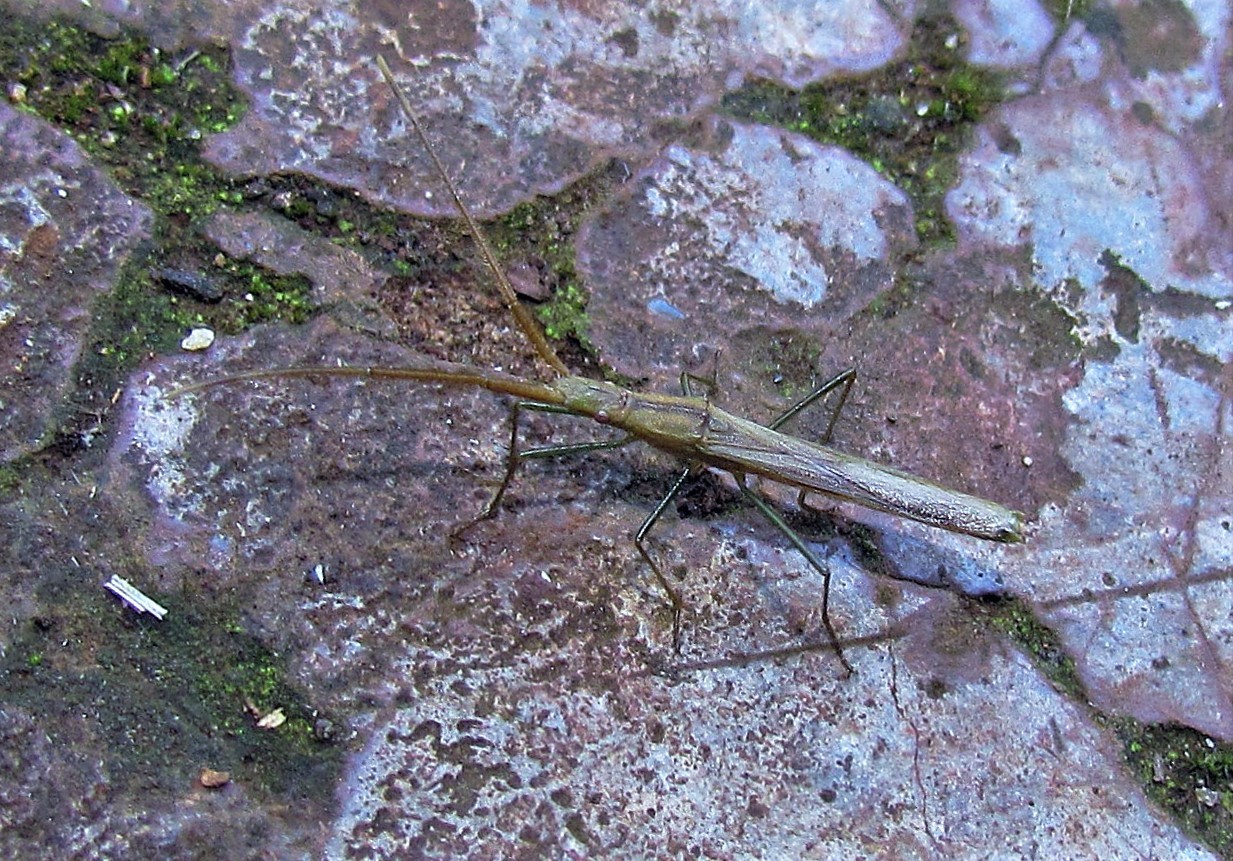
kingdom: Animalia
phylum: Arthropoda
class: Insecta
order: Hemiptera
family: Alydidae
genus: Bactrophya
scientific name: Bactrophya argentina
